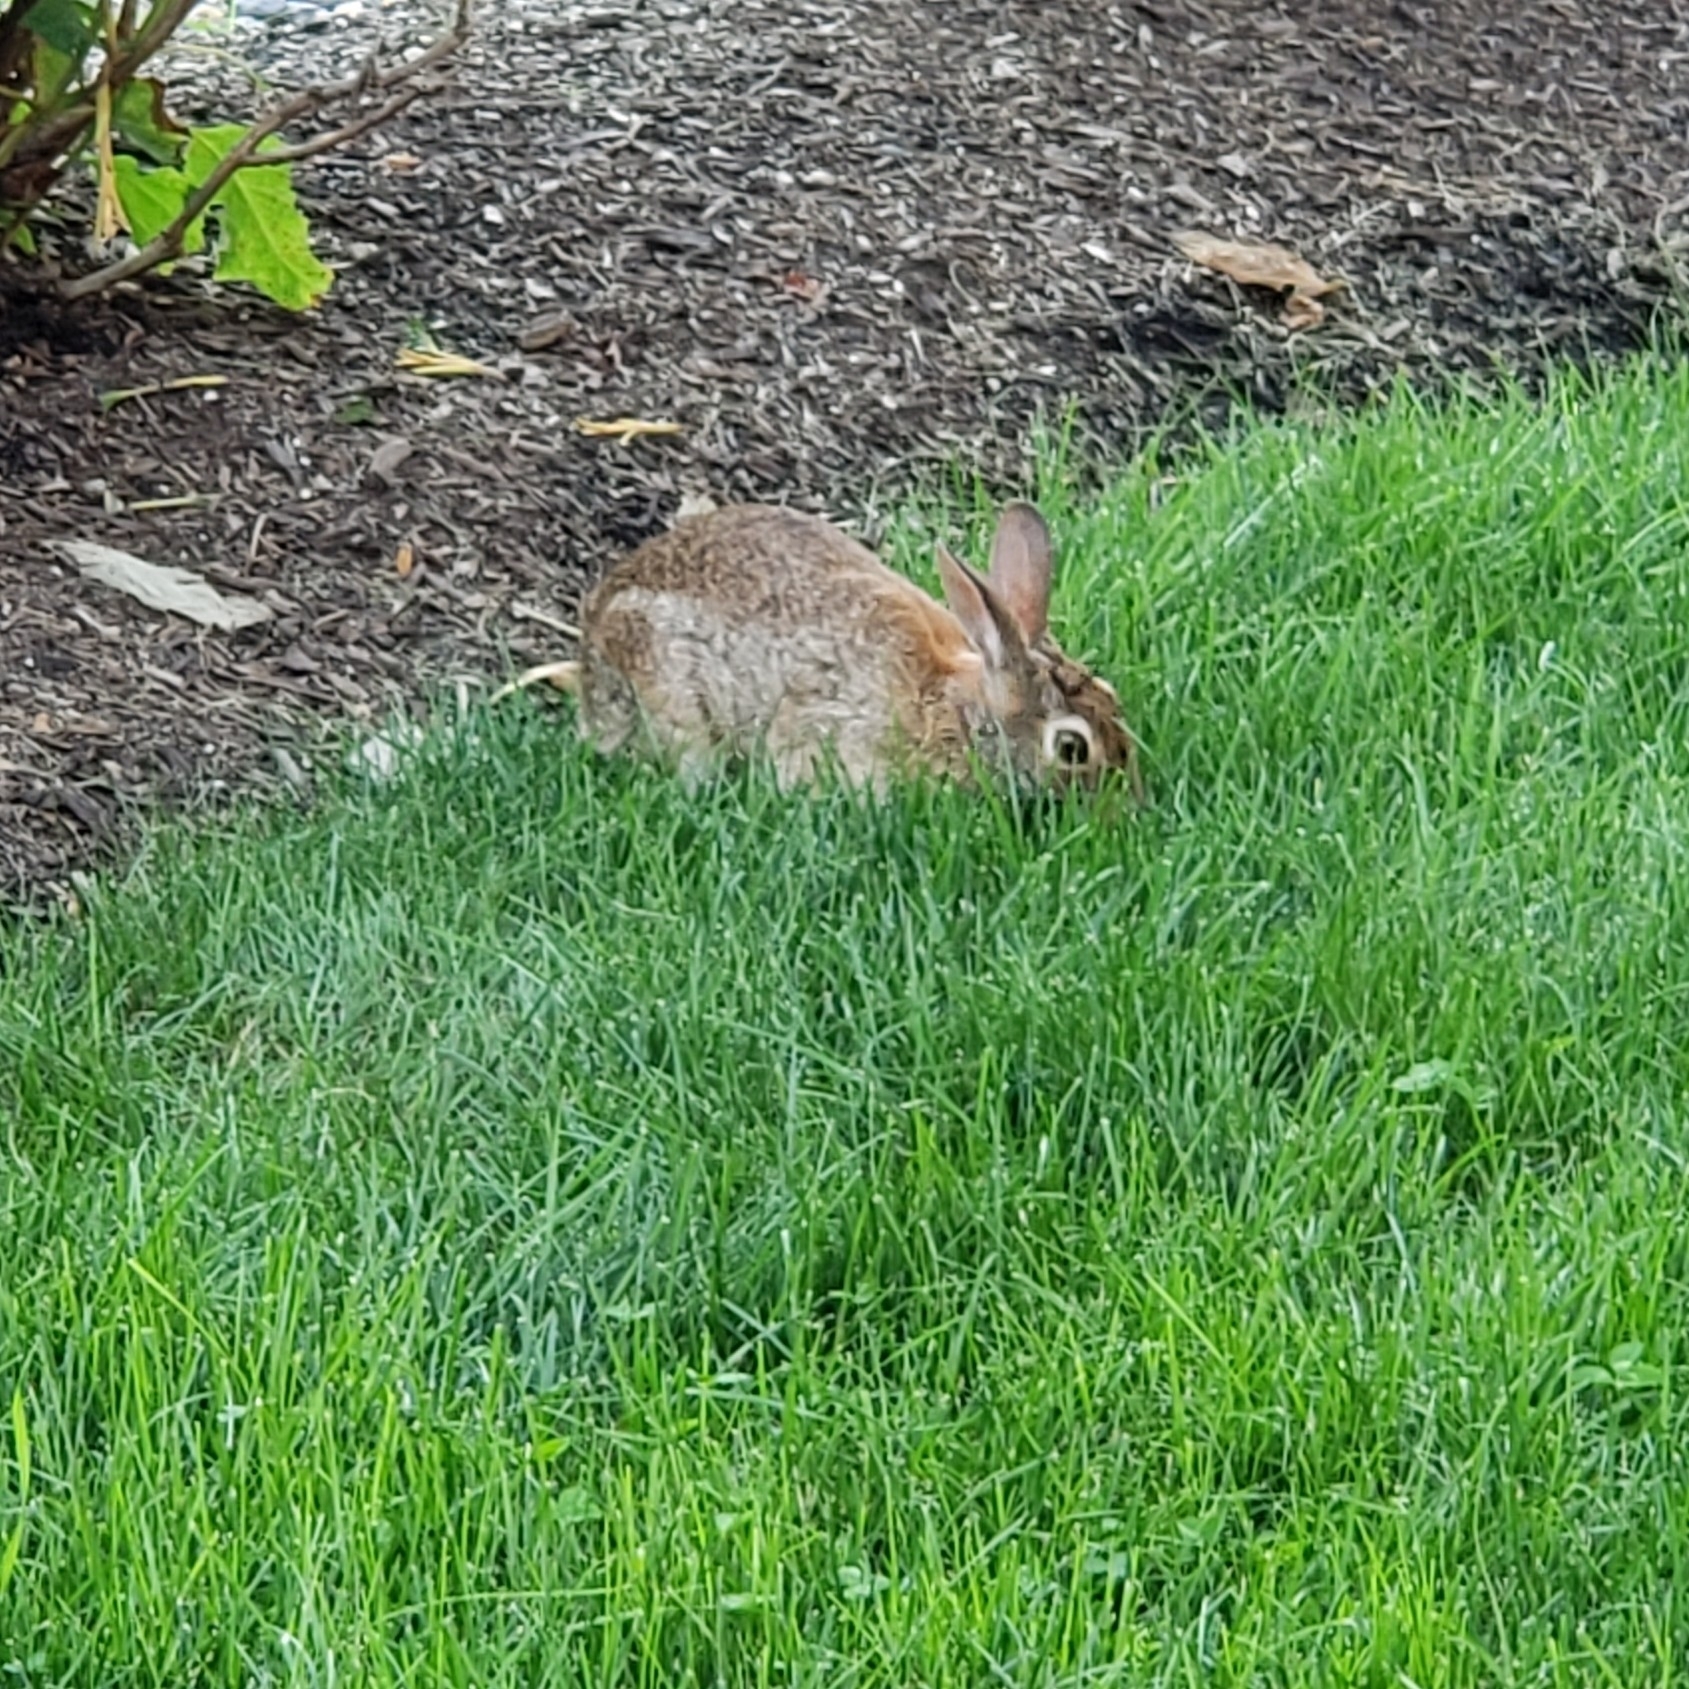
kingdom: Animalia
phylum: Chordata
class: Mammalia
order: Lagomorpha
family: Leporidae
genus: Sylvilagus
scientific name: Sylvilagus floridanus
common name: Eastern cottontail
